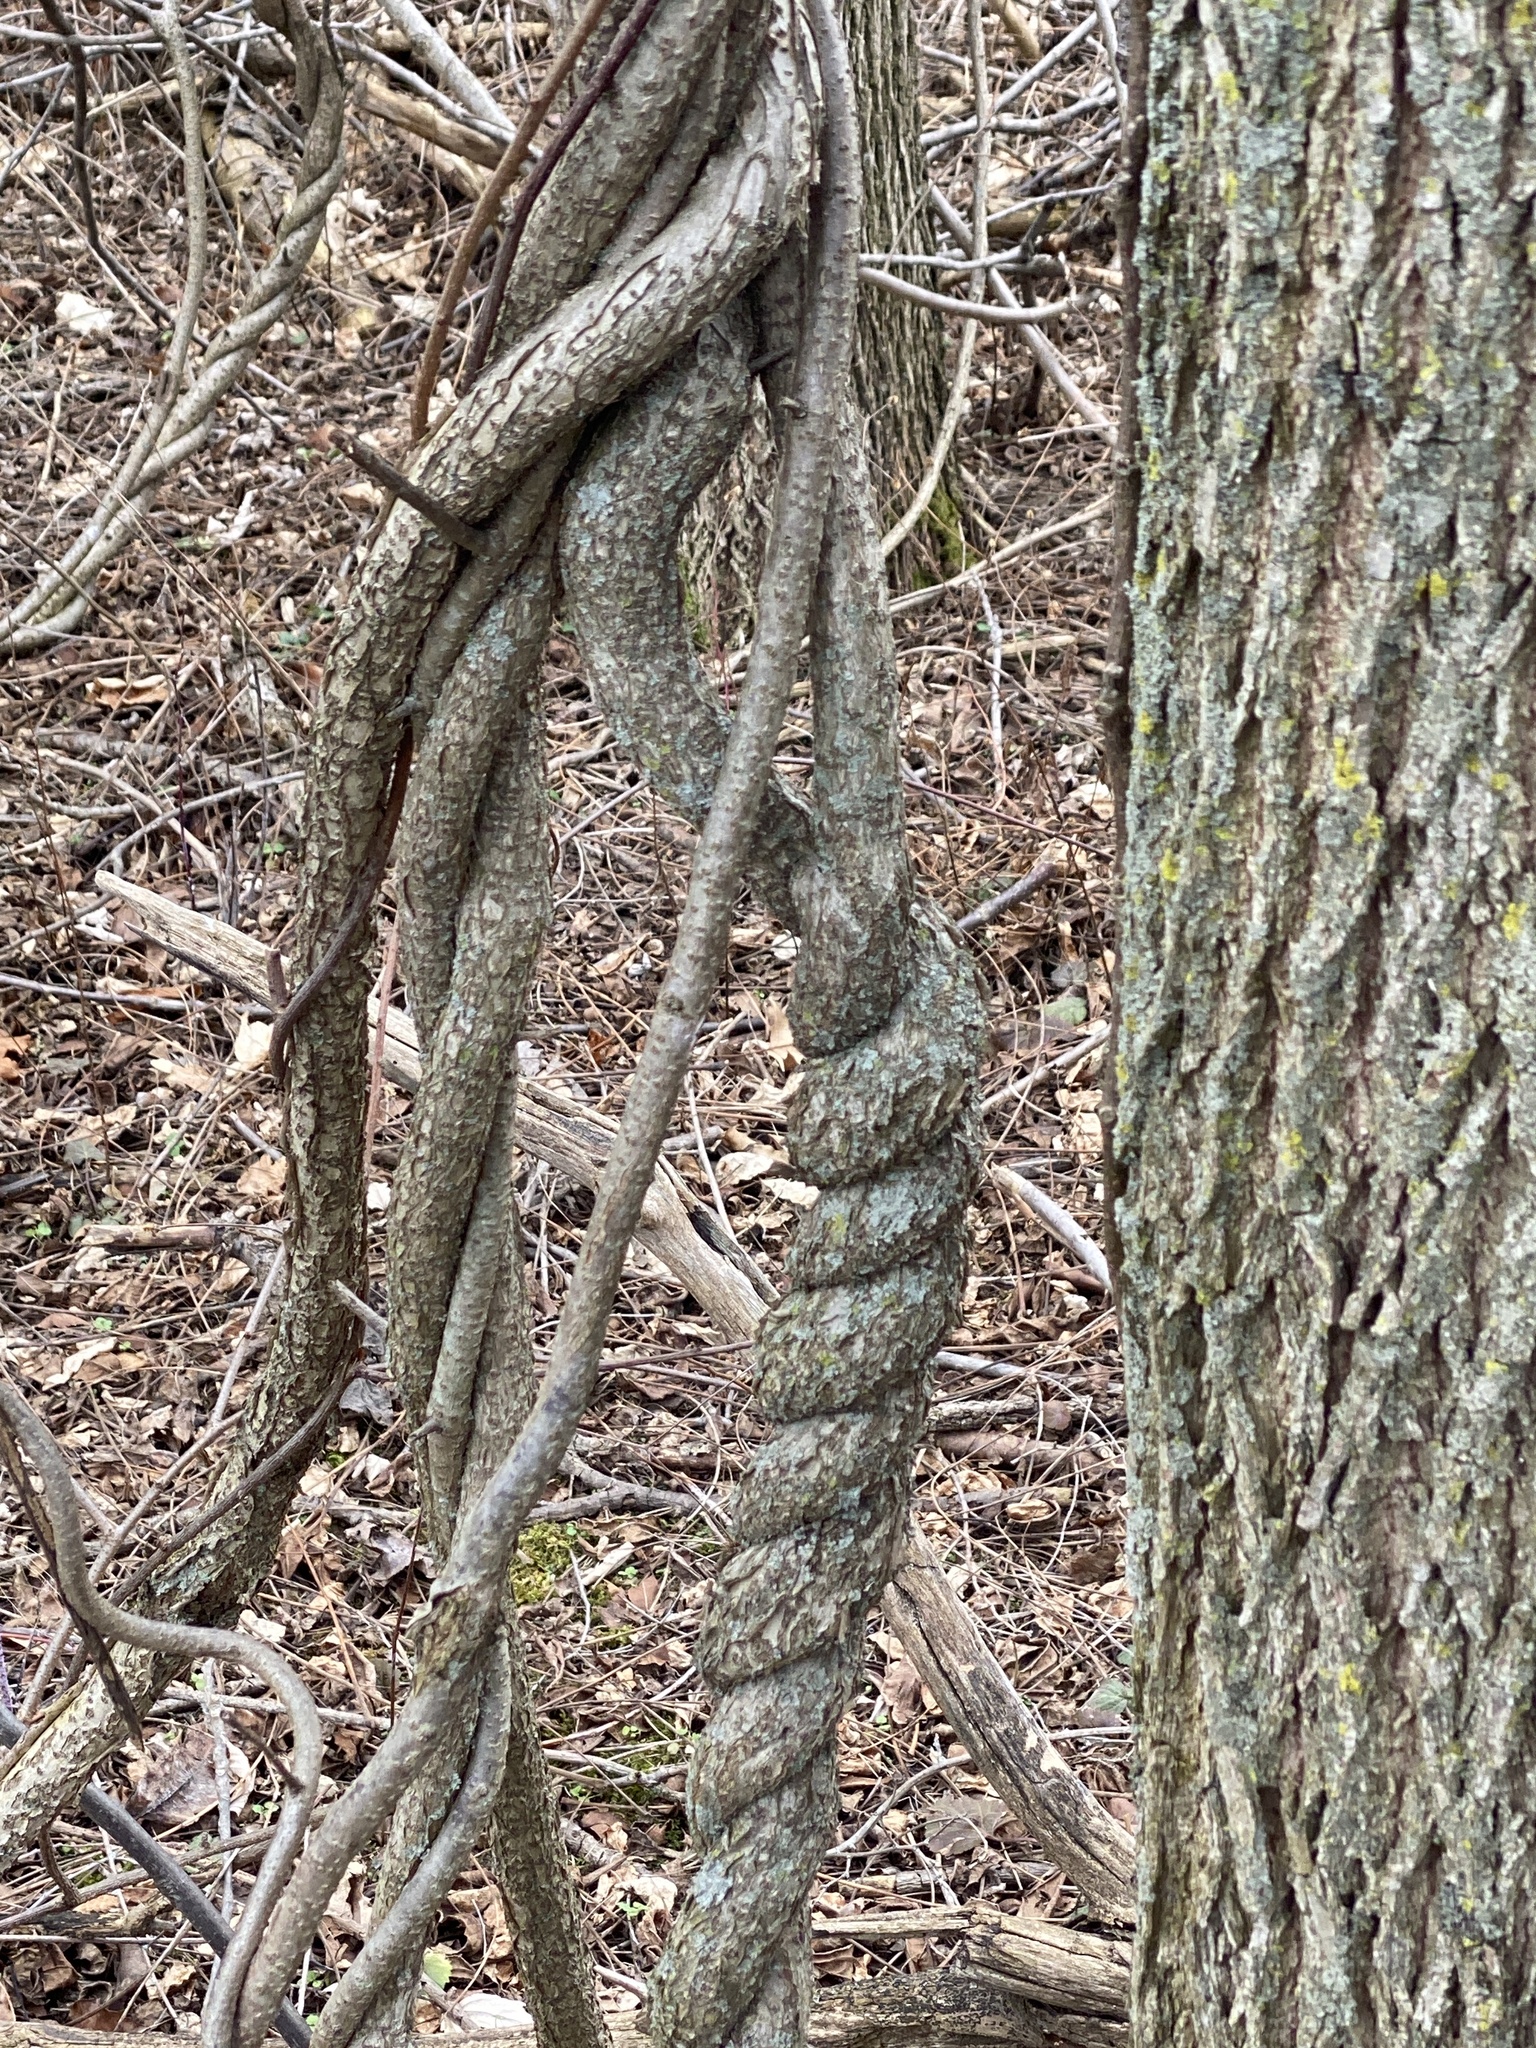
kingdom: Plantae
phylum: Tracheophyta
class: Magnoliopsida
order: Celastrales
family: Celastraceae
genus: Celastrus
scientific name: Celastrus orbiculatus
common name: Oriental bittersweet
